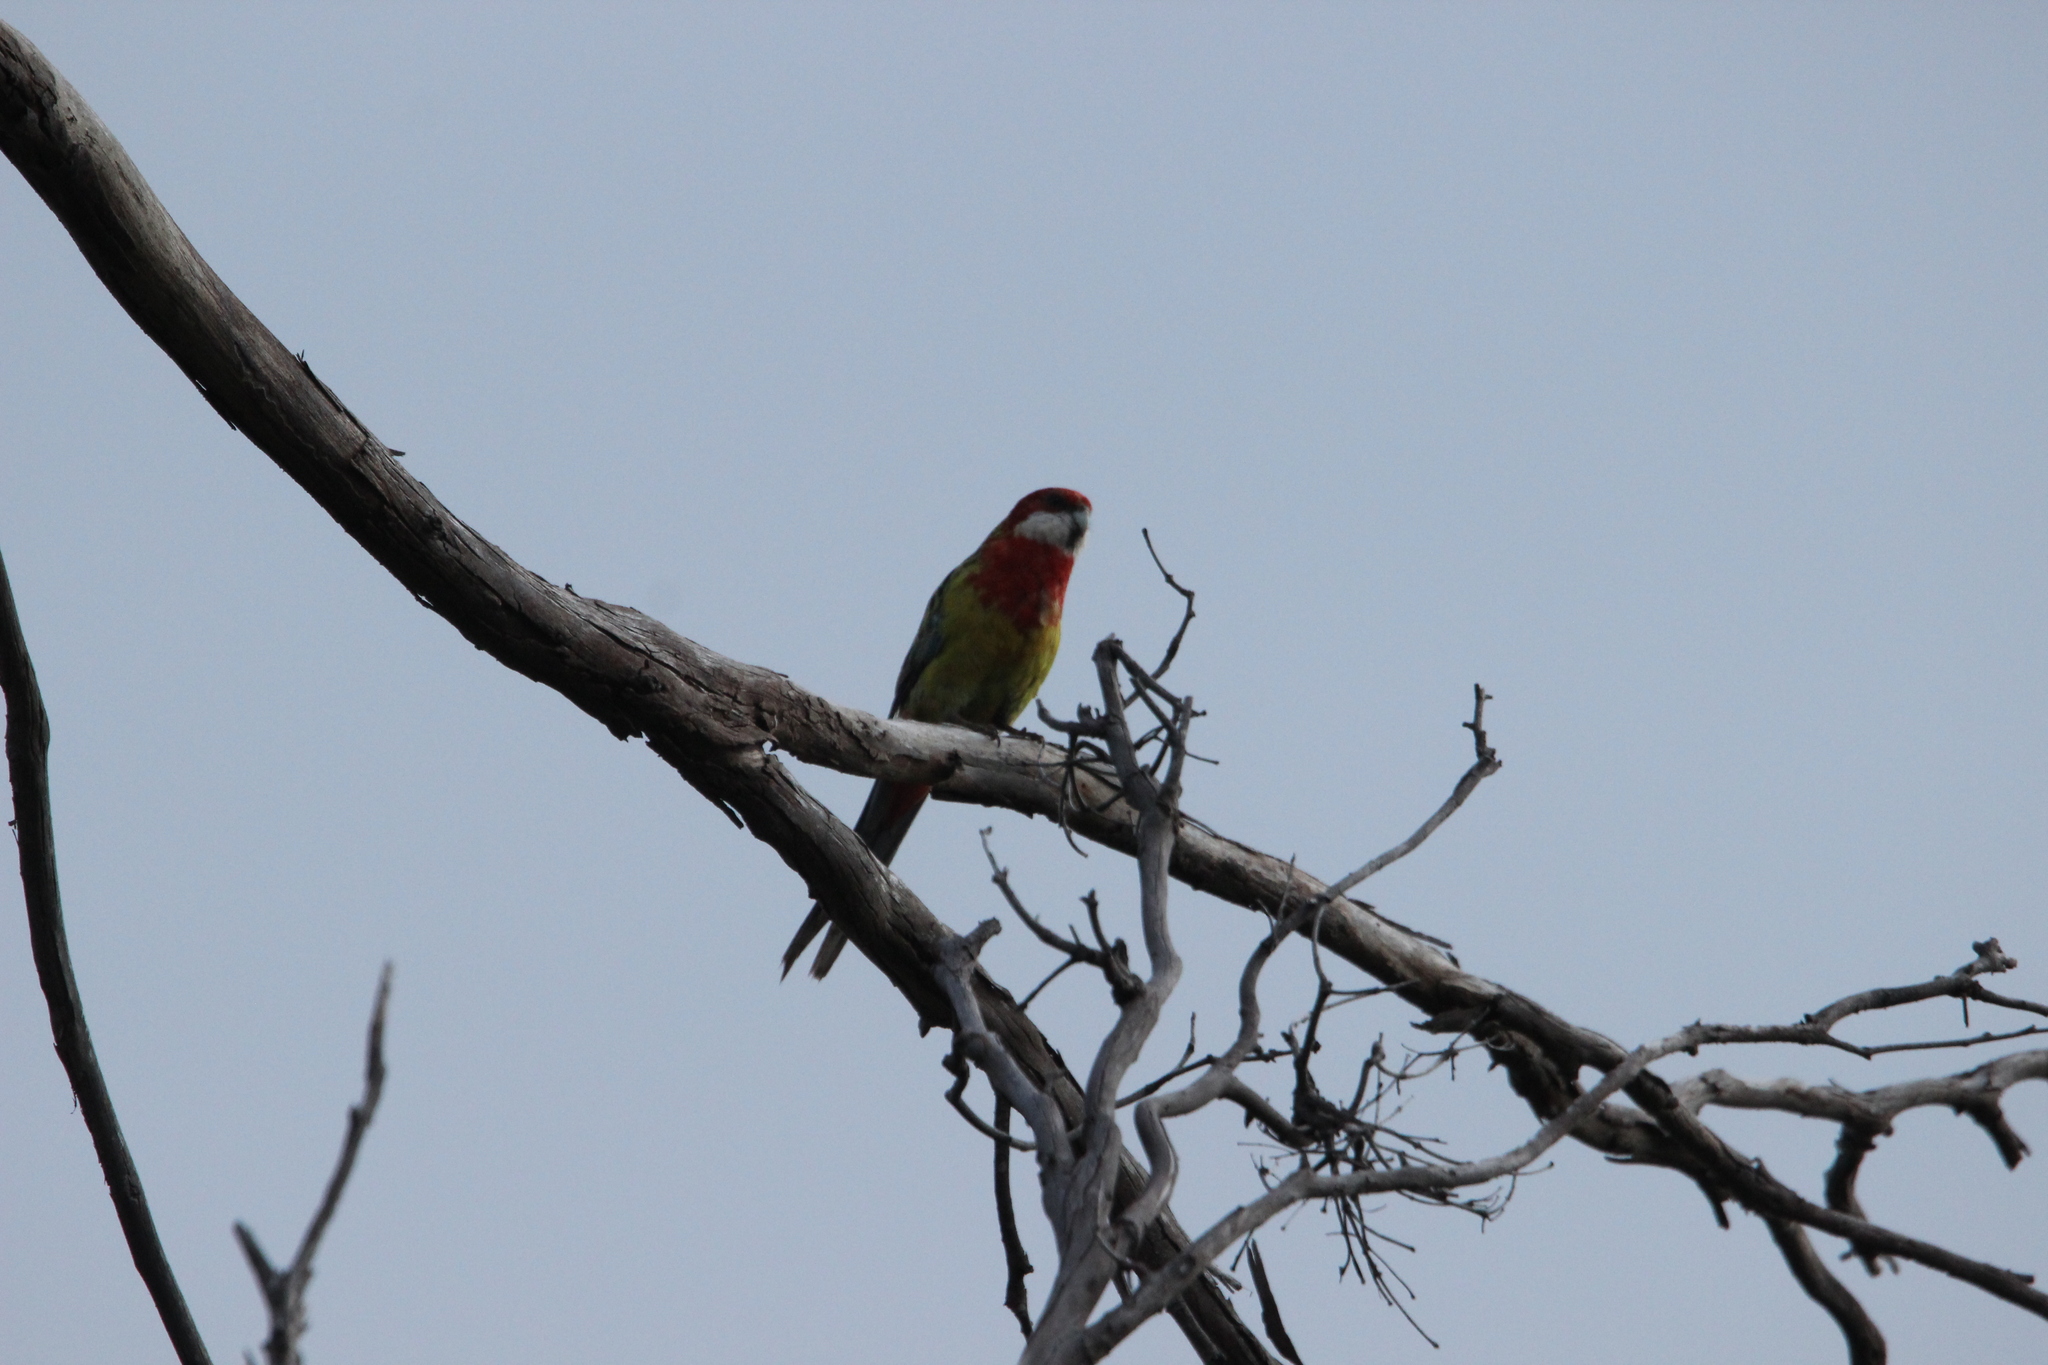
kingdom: Animalia
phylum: Chordata
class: Aves
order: Psittaciformes
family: Psittacidae
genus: Platycercus
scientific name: Platycercus eximius
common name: Eastern rosella
